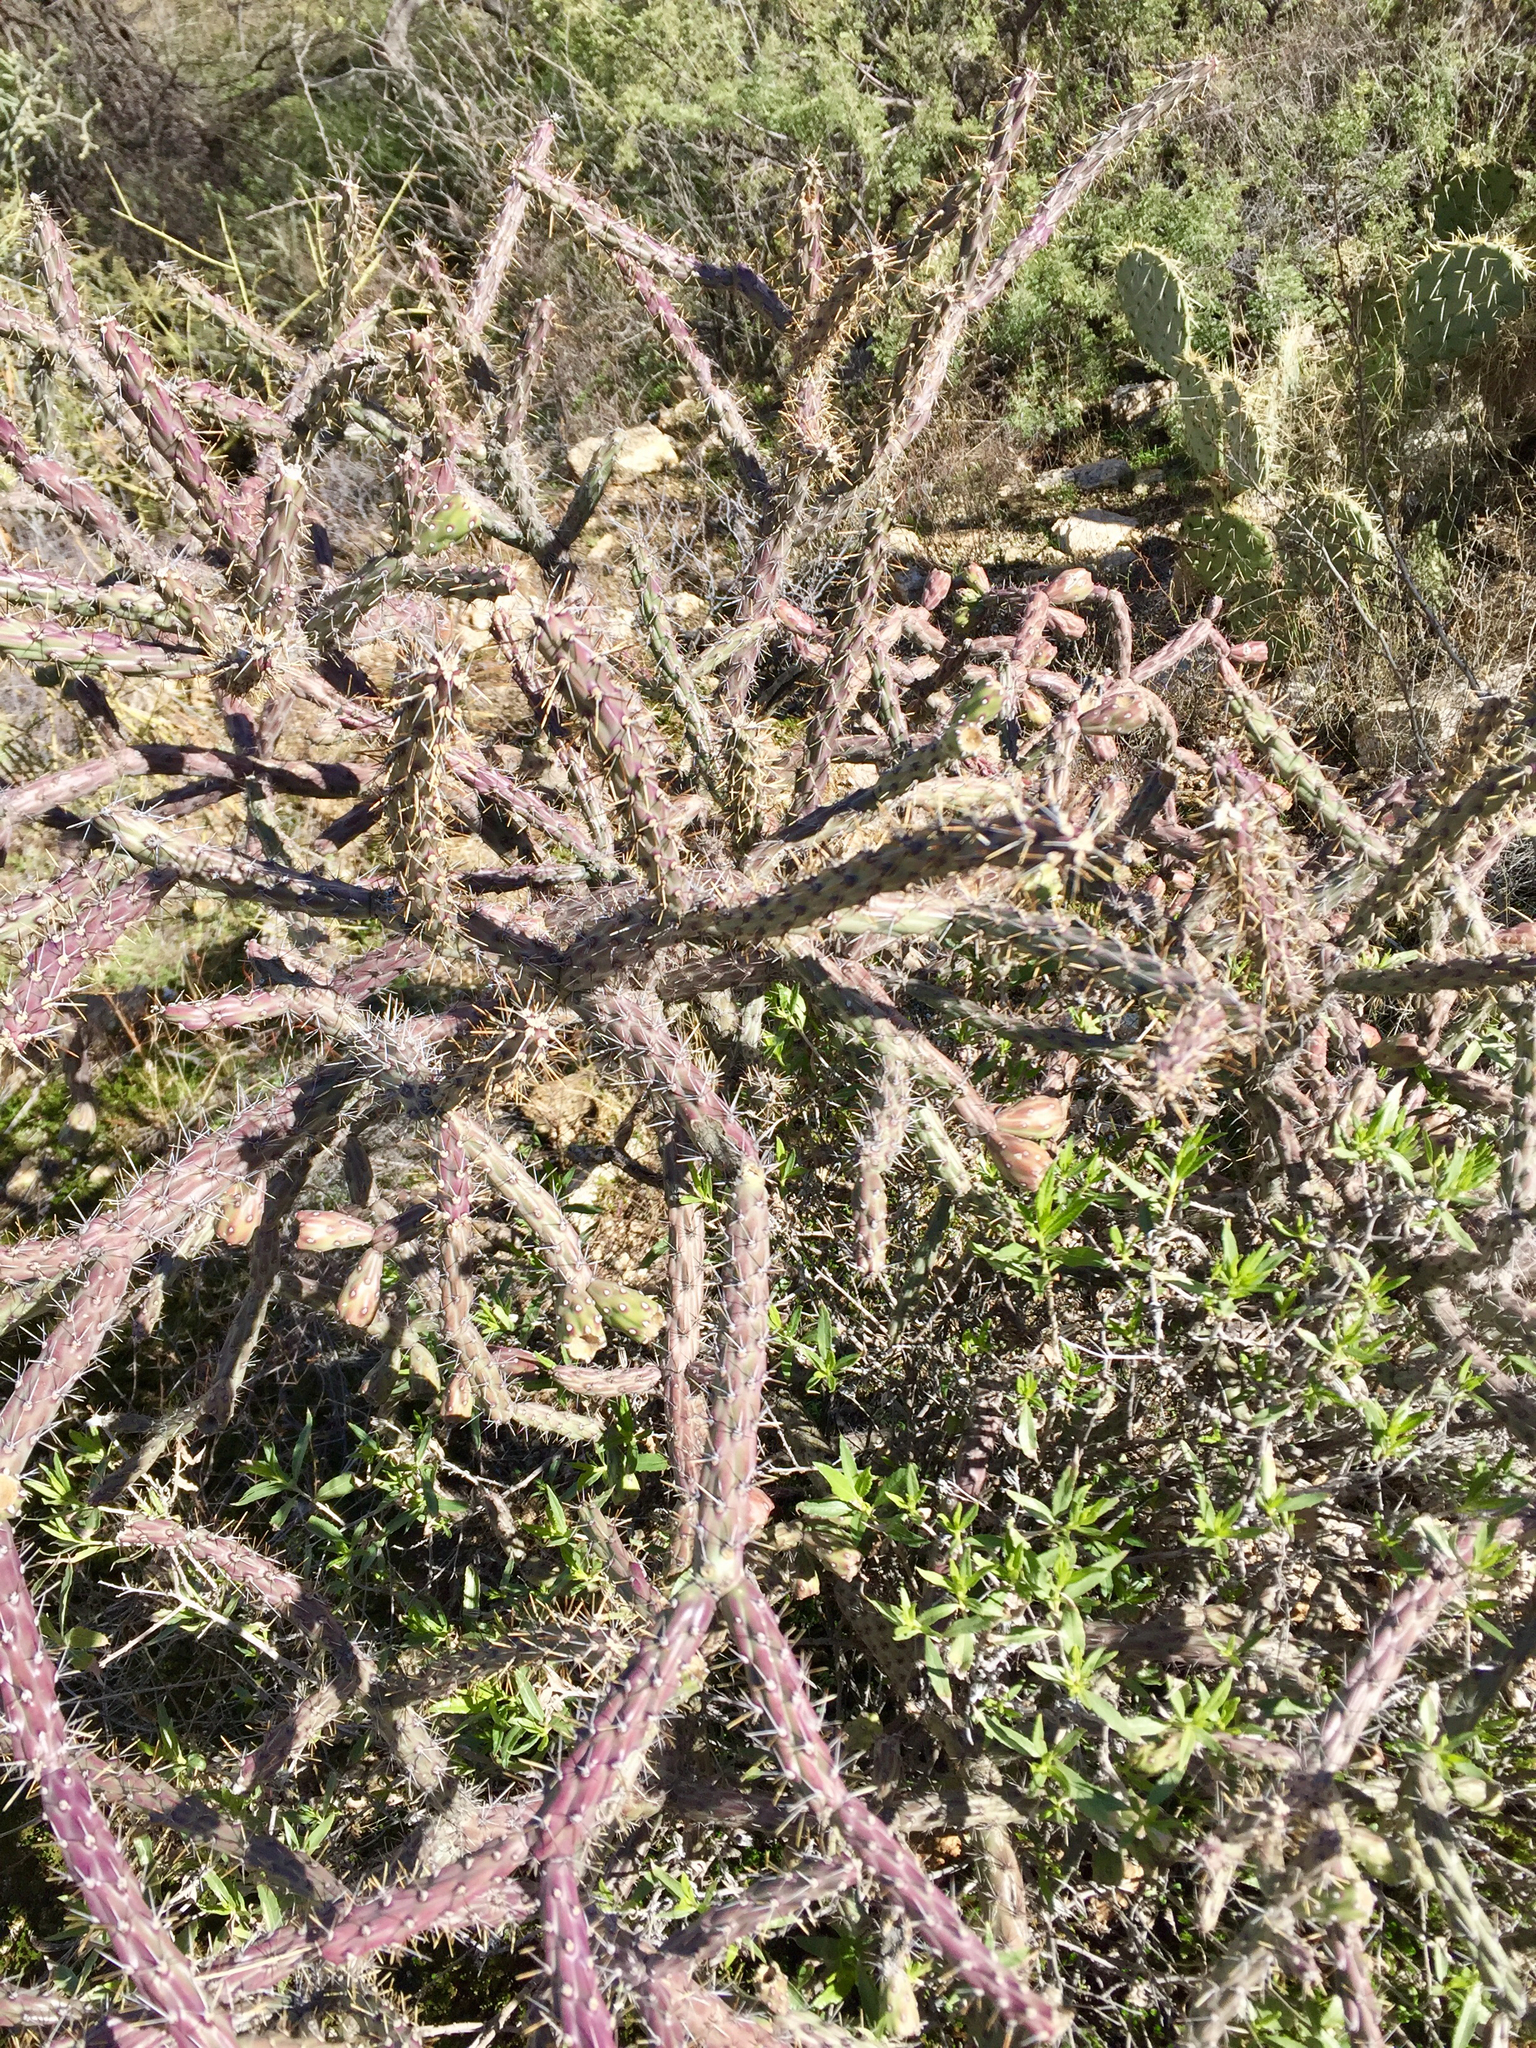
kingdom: Plantae
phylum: Tracheophyta
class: Magnoliopsida
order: Caryophyllales
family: Cactaceae
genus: Cylindropuntia
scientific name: Cylindropuntia thurberi
